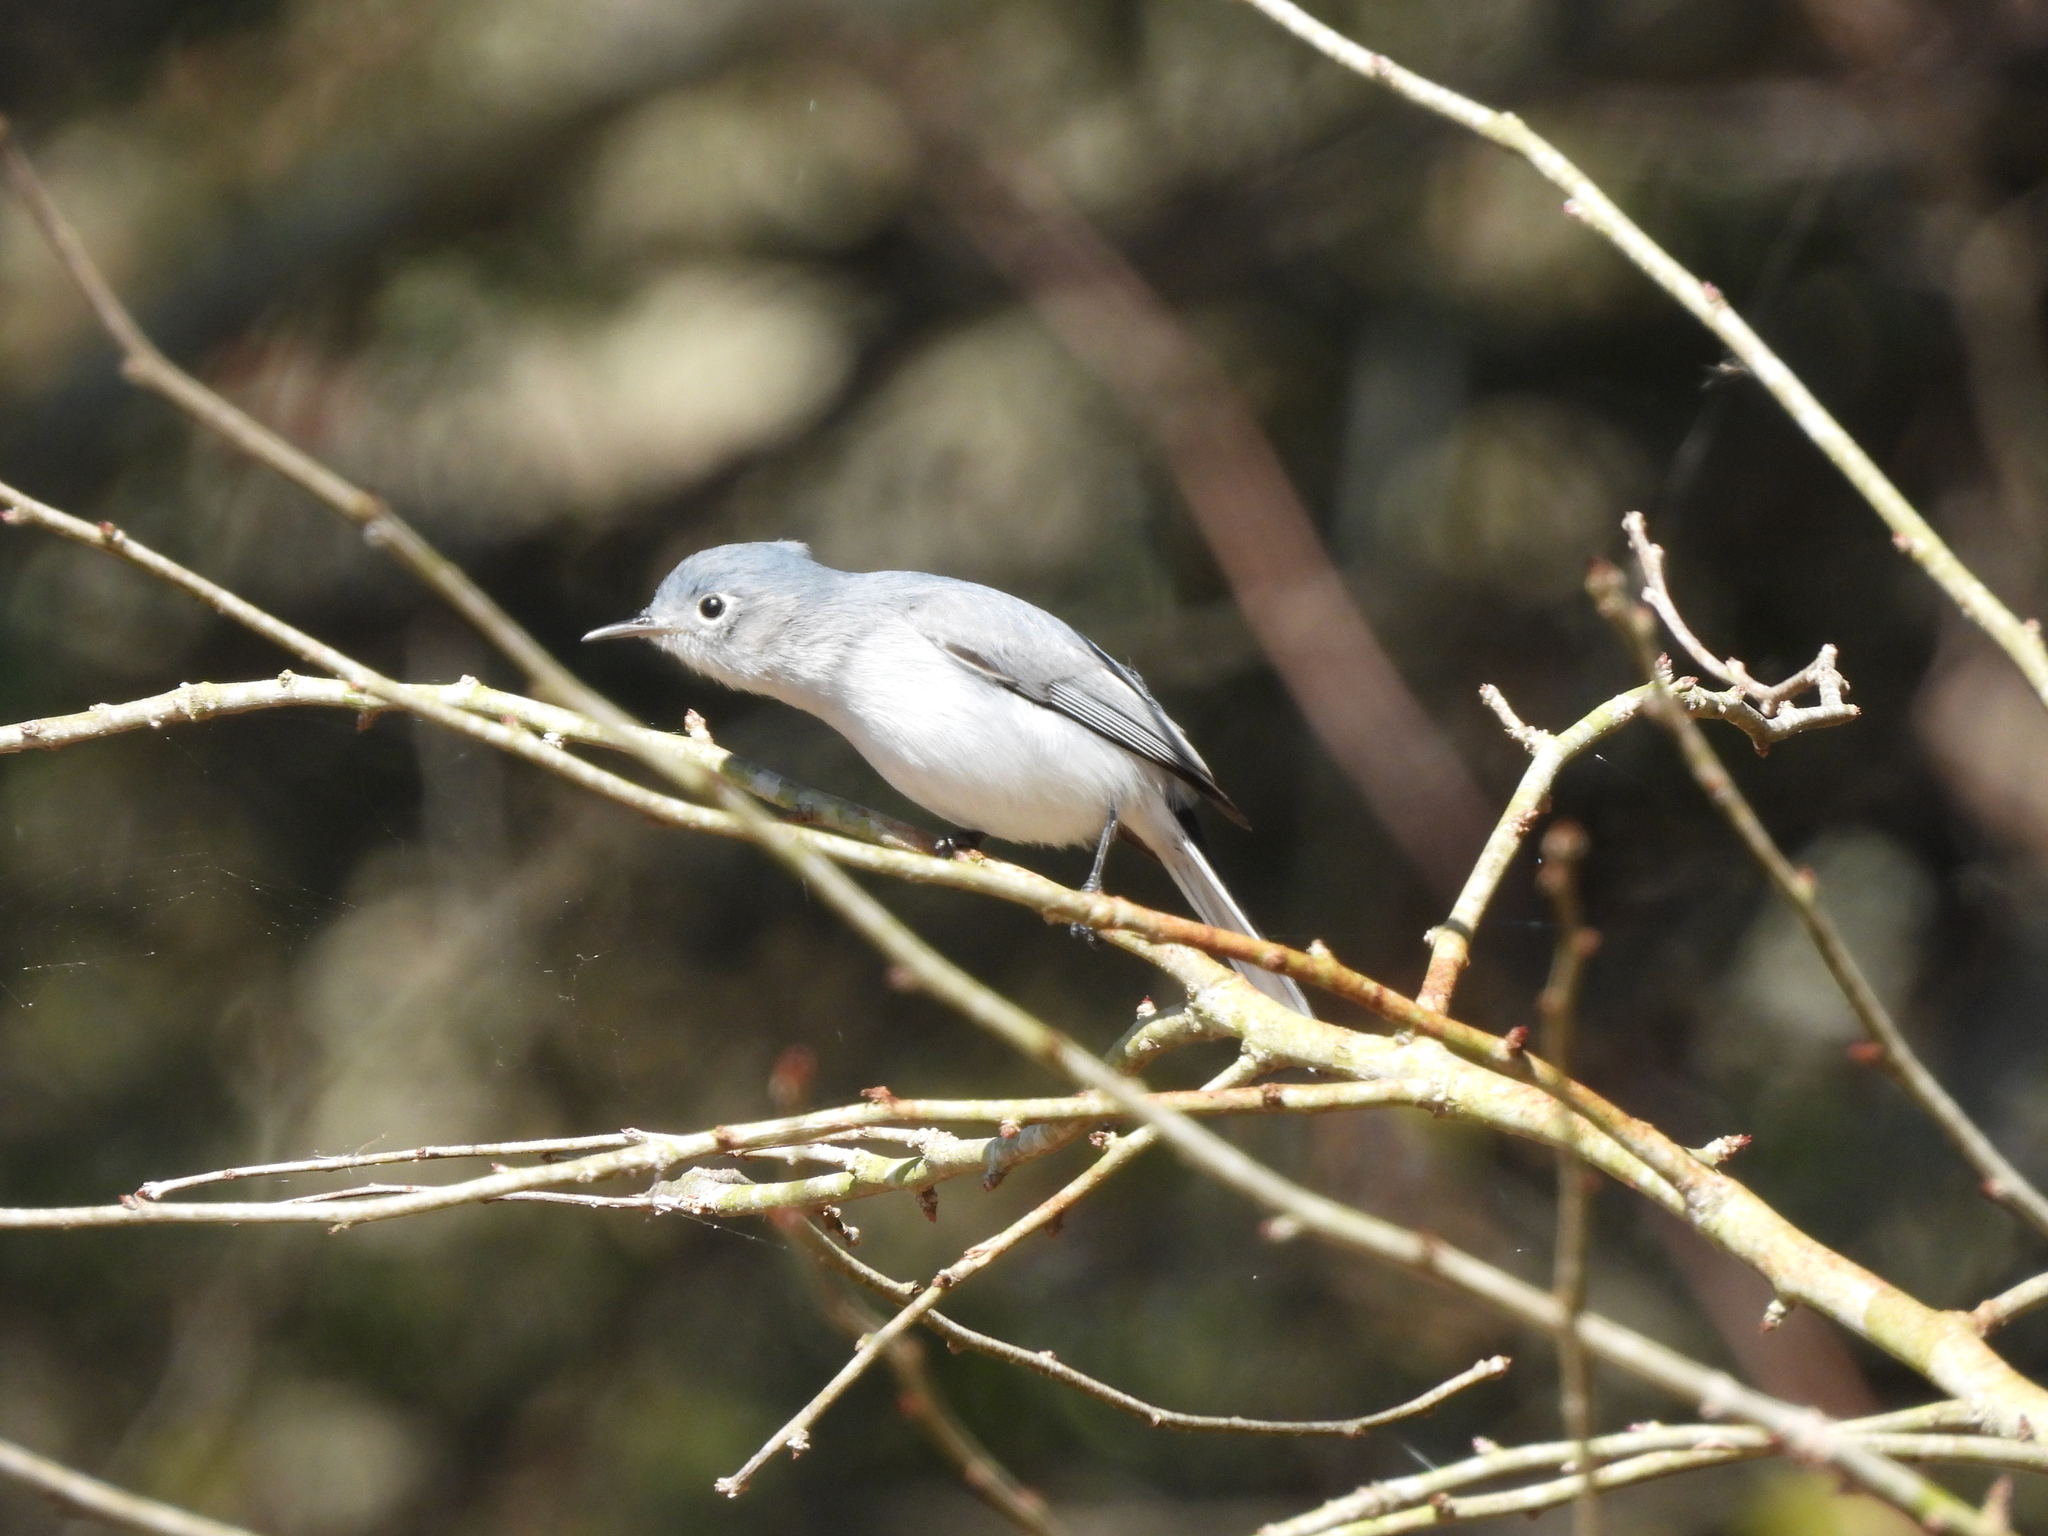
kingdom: Animalia
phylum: Chordata
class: Aves
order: Passeriformes
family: Polioptilidae
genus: Polioptila
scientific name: Polioptila caerulea
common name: Blue-gray gnatcatcher
